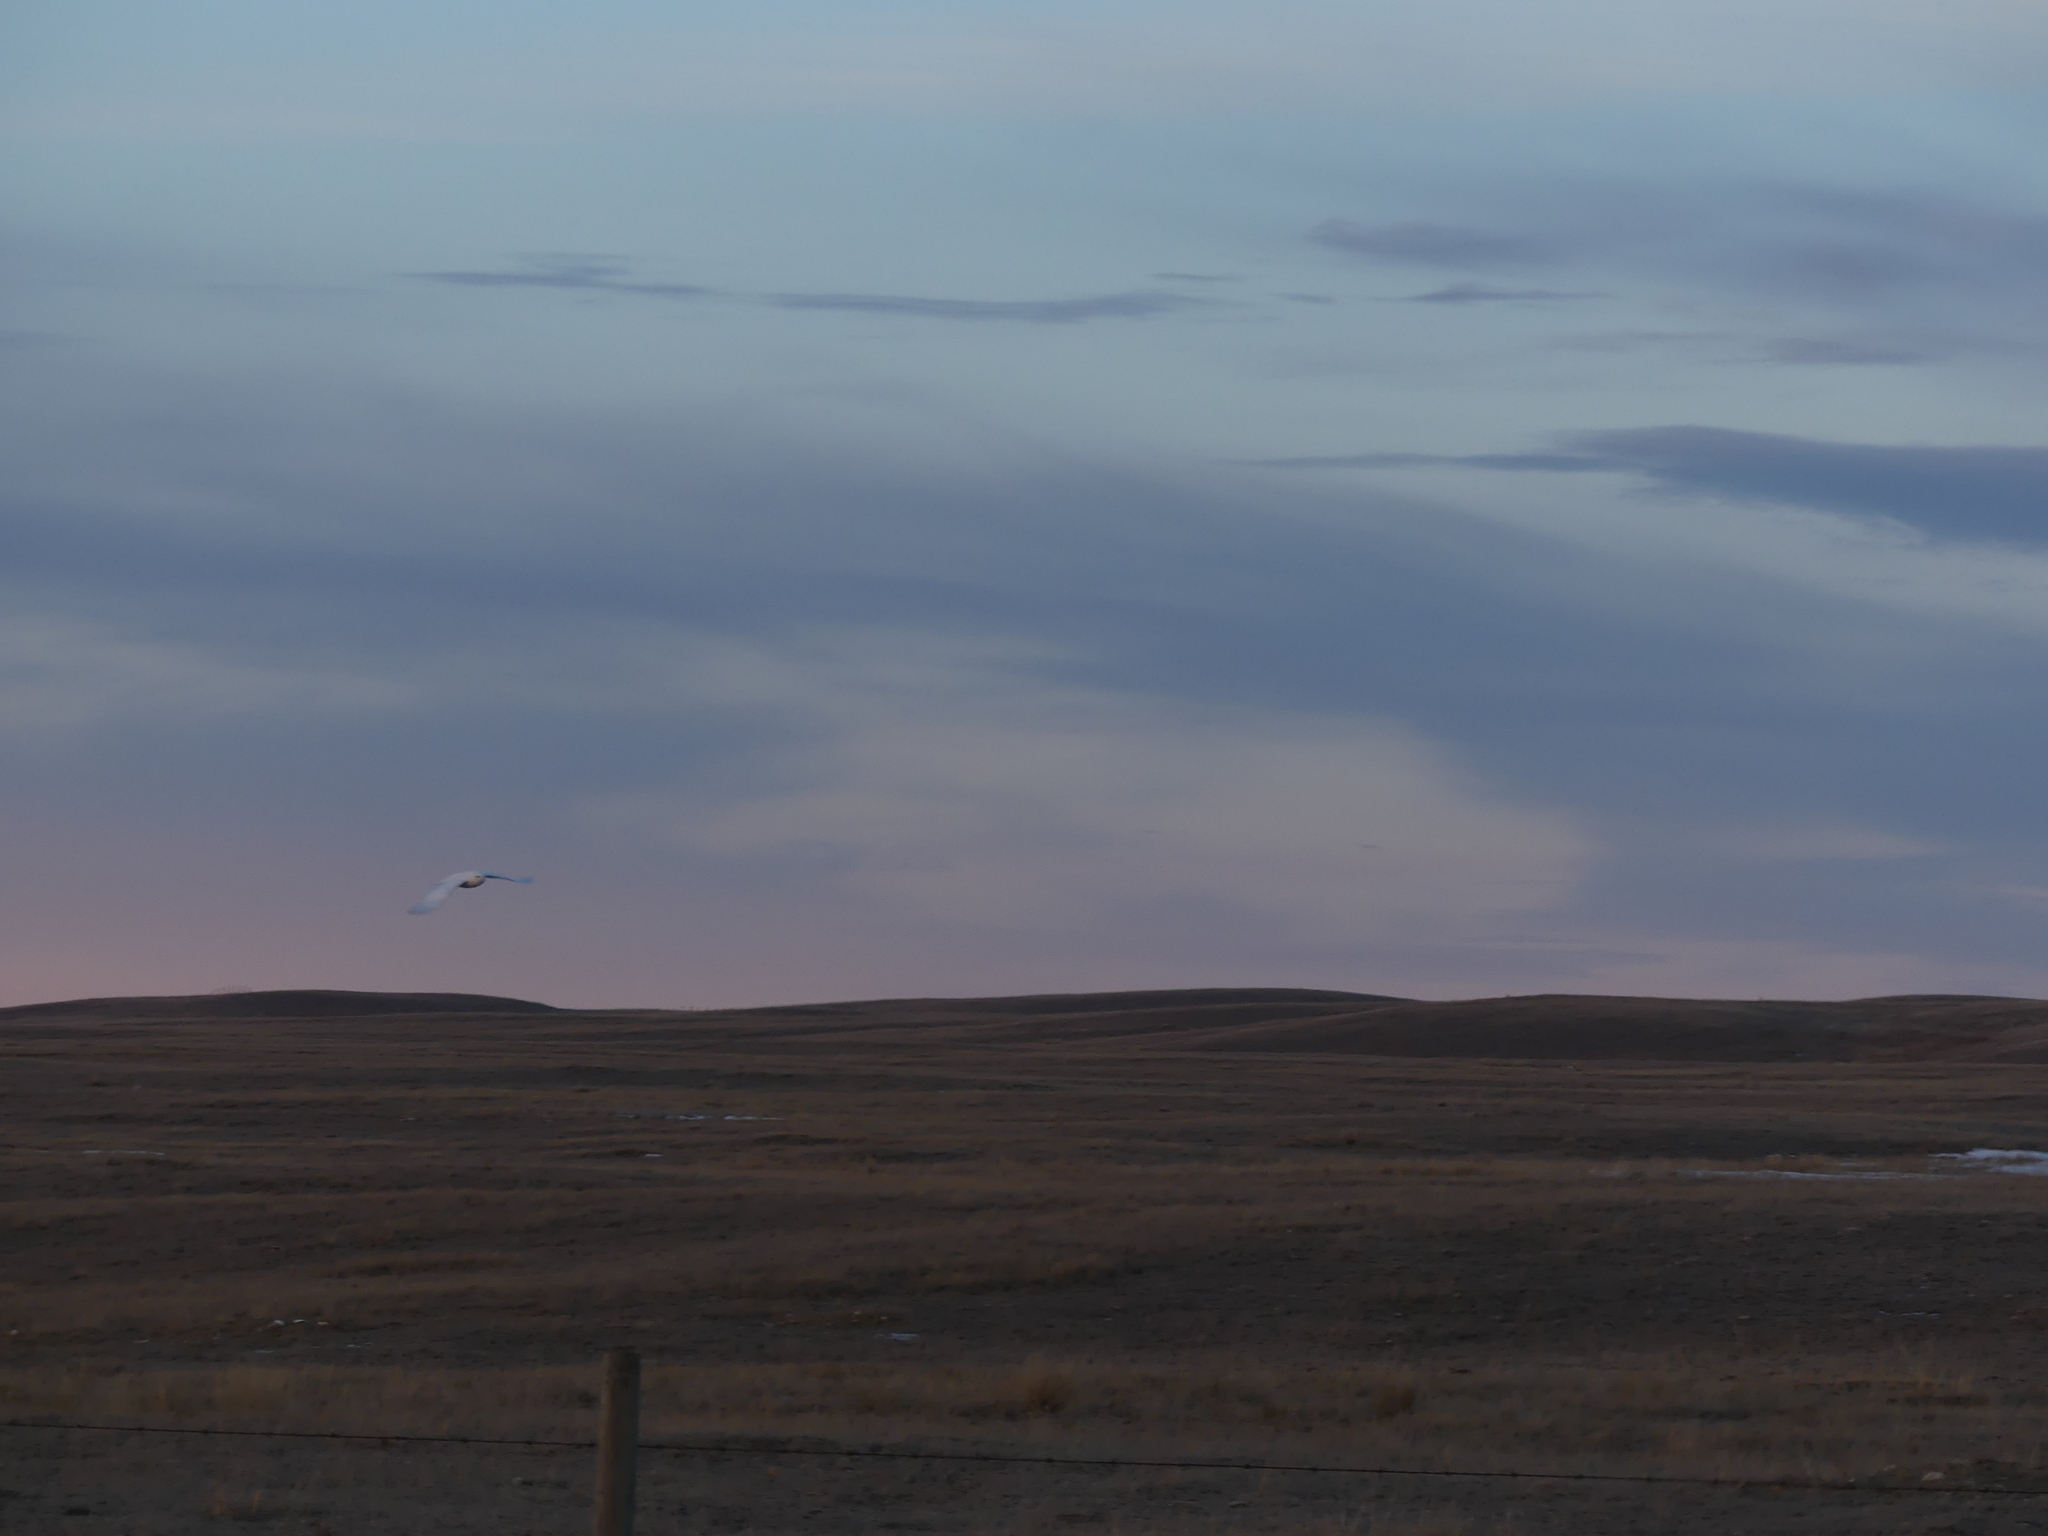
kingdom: Animalia
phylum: Chordata
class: Aves
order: Strigiformes
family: Strigidae
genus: Bubo
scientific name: Bubo scandiacus
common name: Snowy owl
